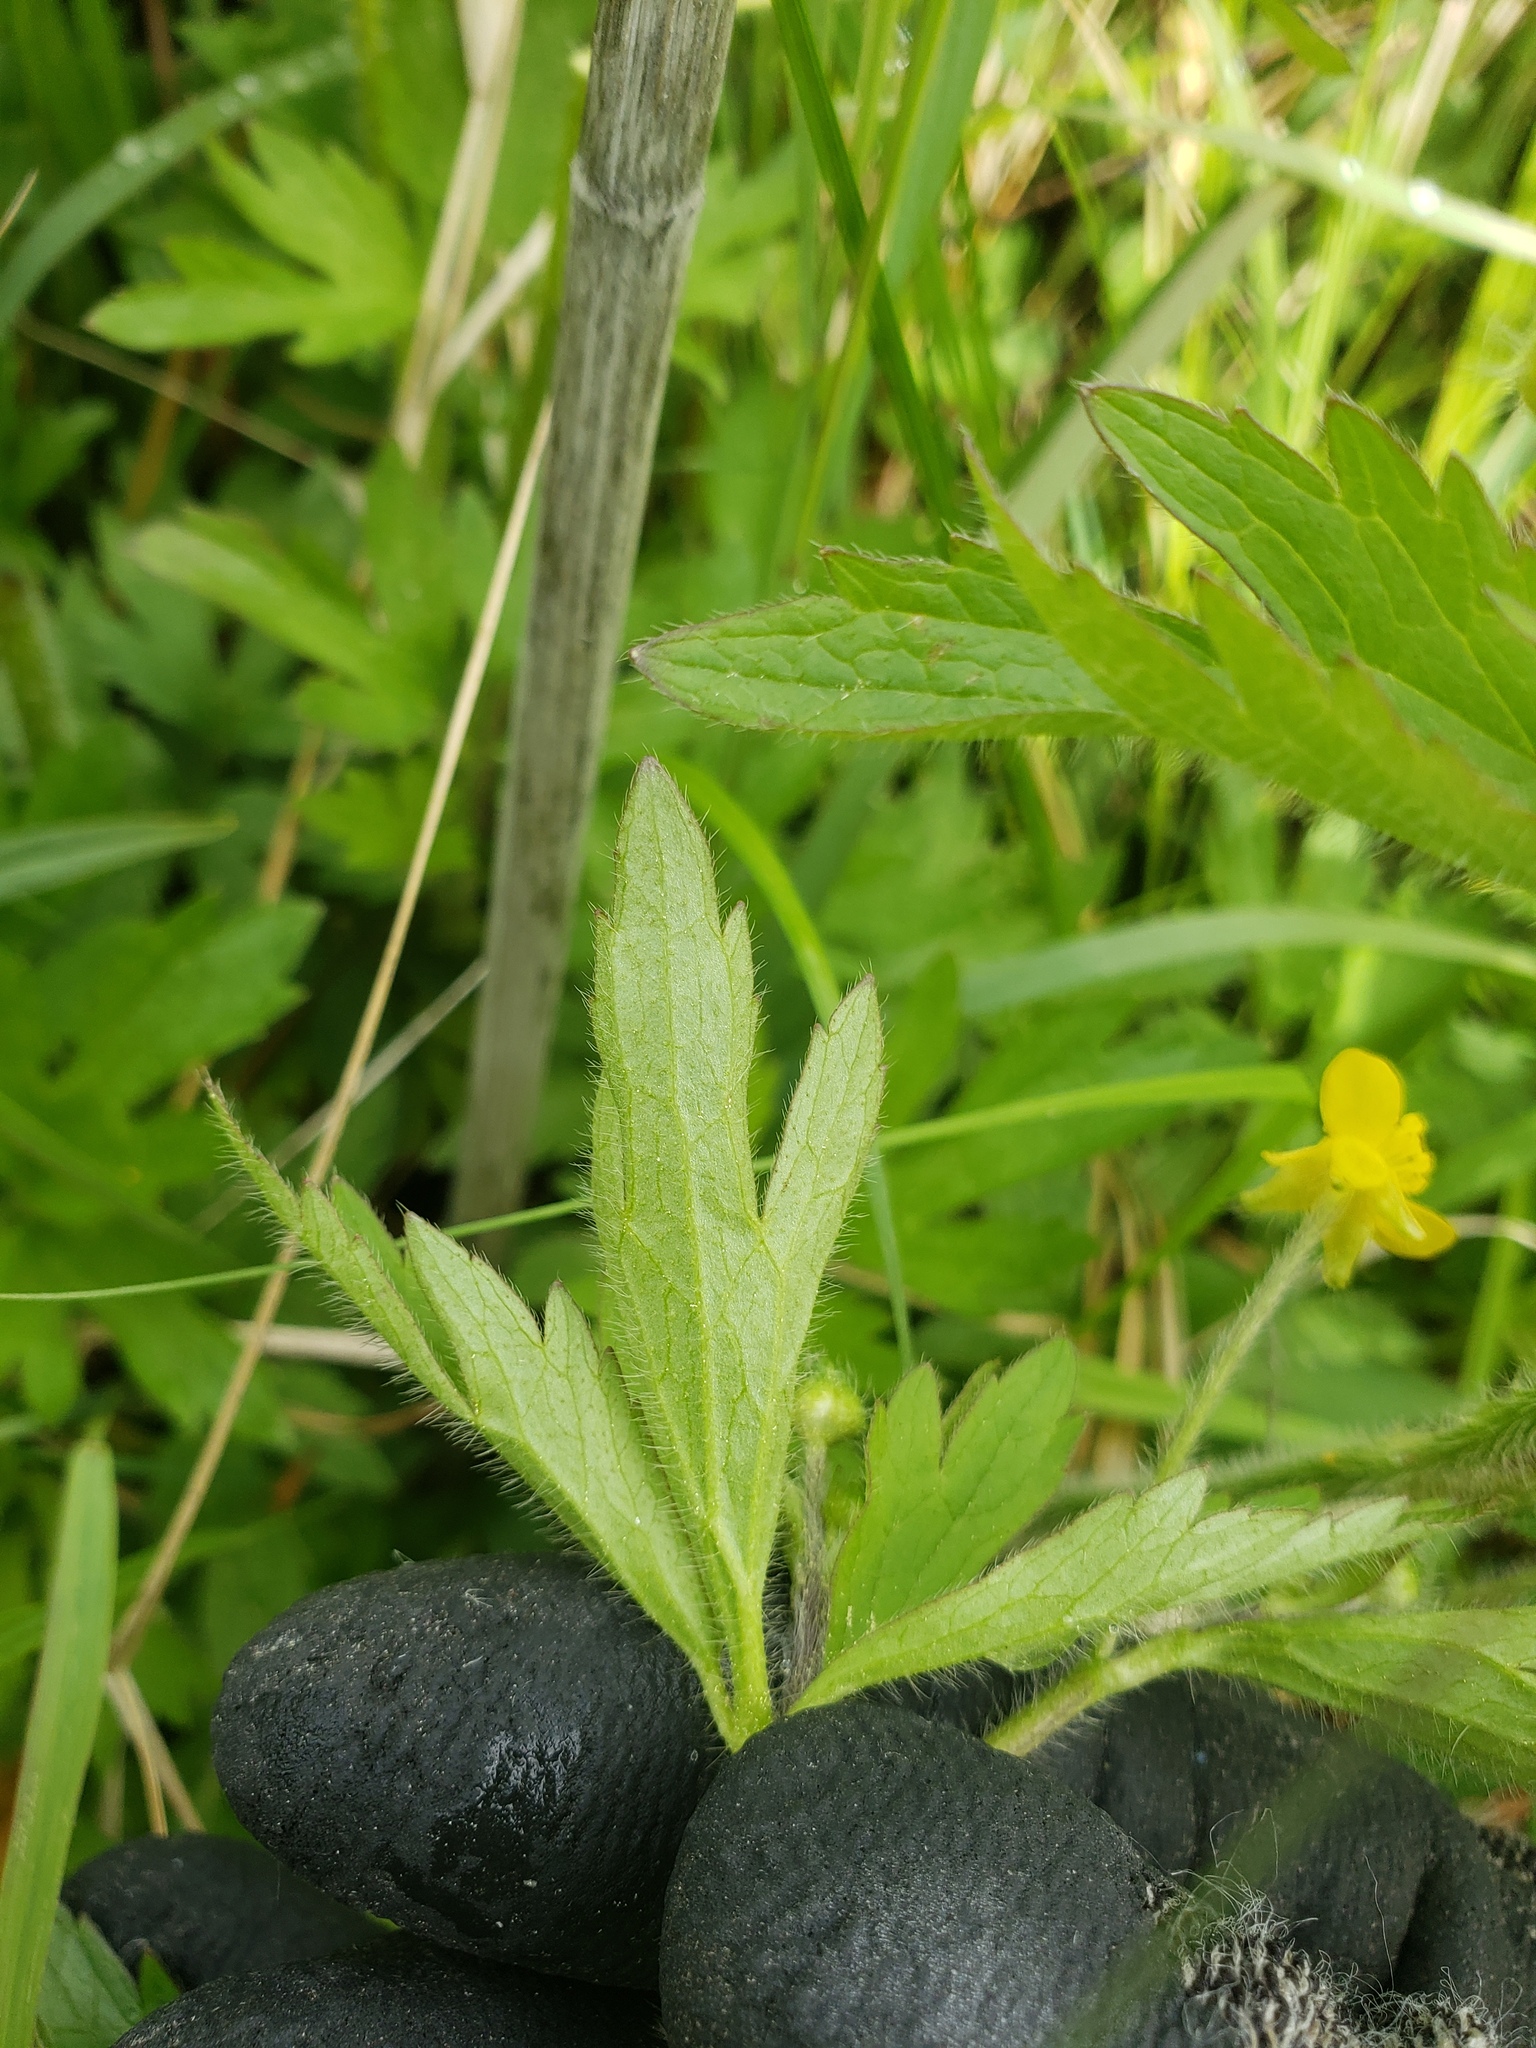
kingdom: Plantae
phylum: Tracheophyta
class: Magnoliopsida
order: Ranunculales
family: Ranunculaceae
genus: Ranunculus
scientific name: Ranunculus macounii
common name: Macoun's buttercup
